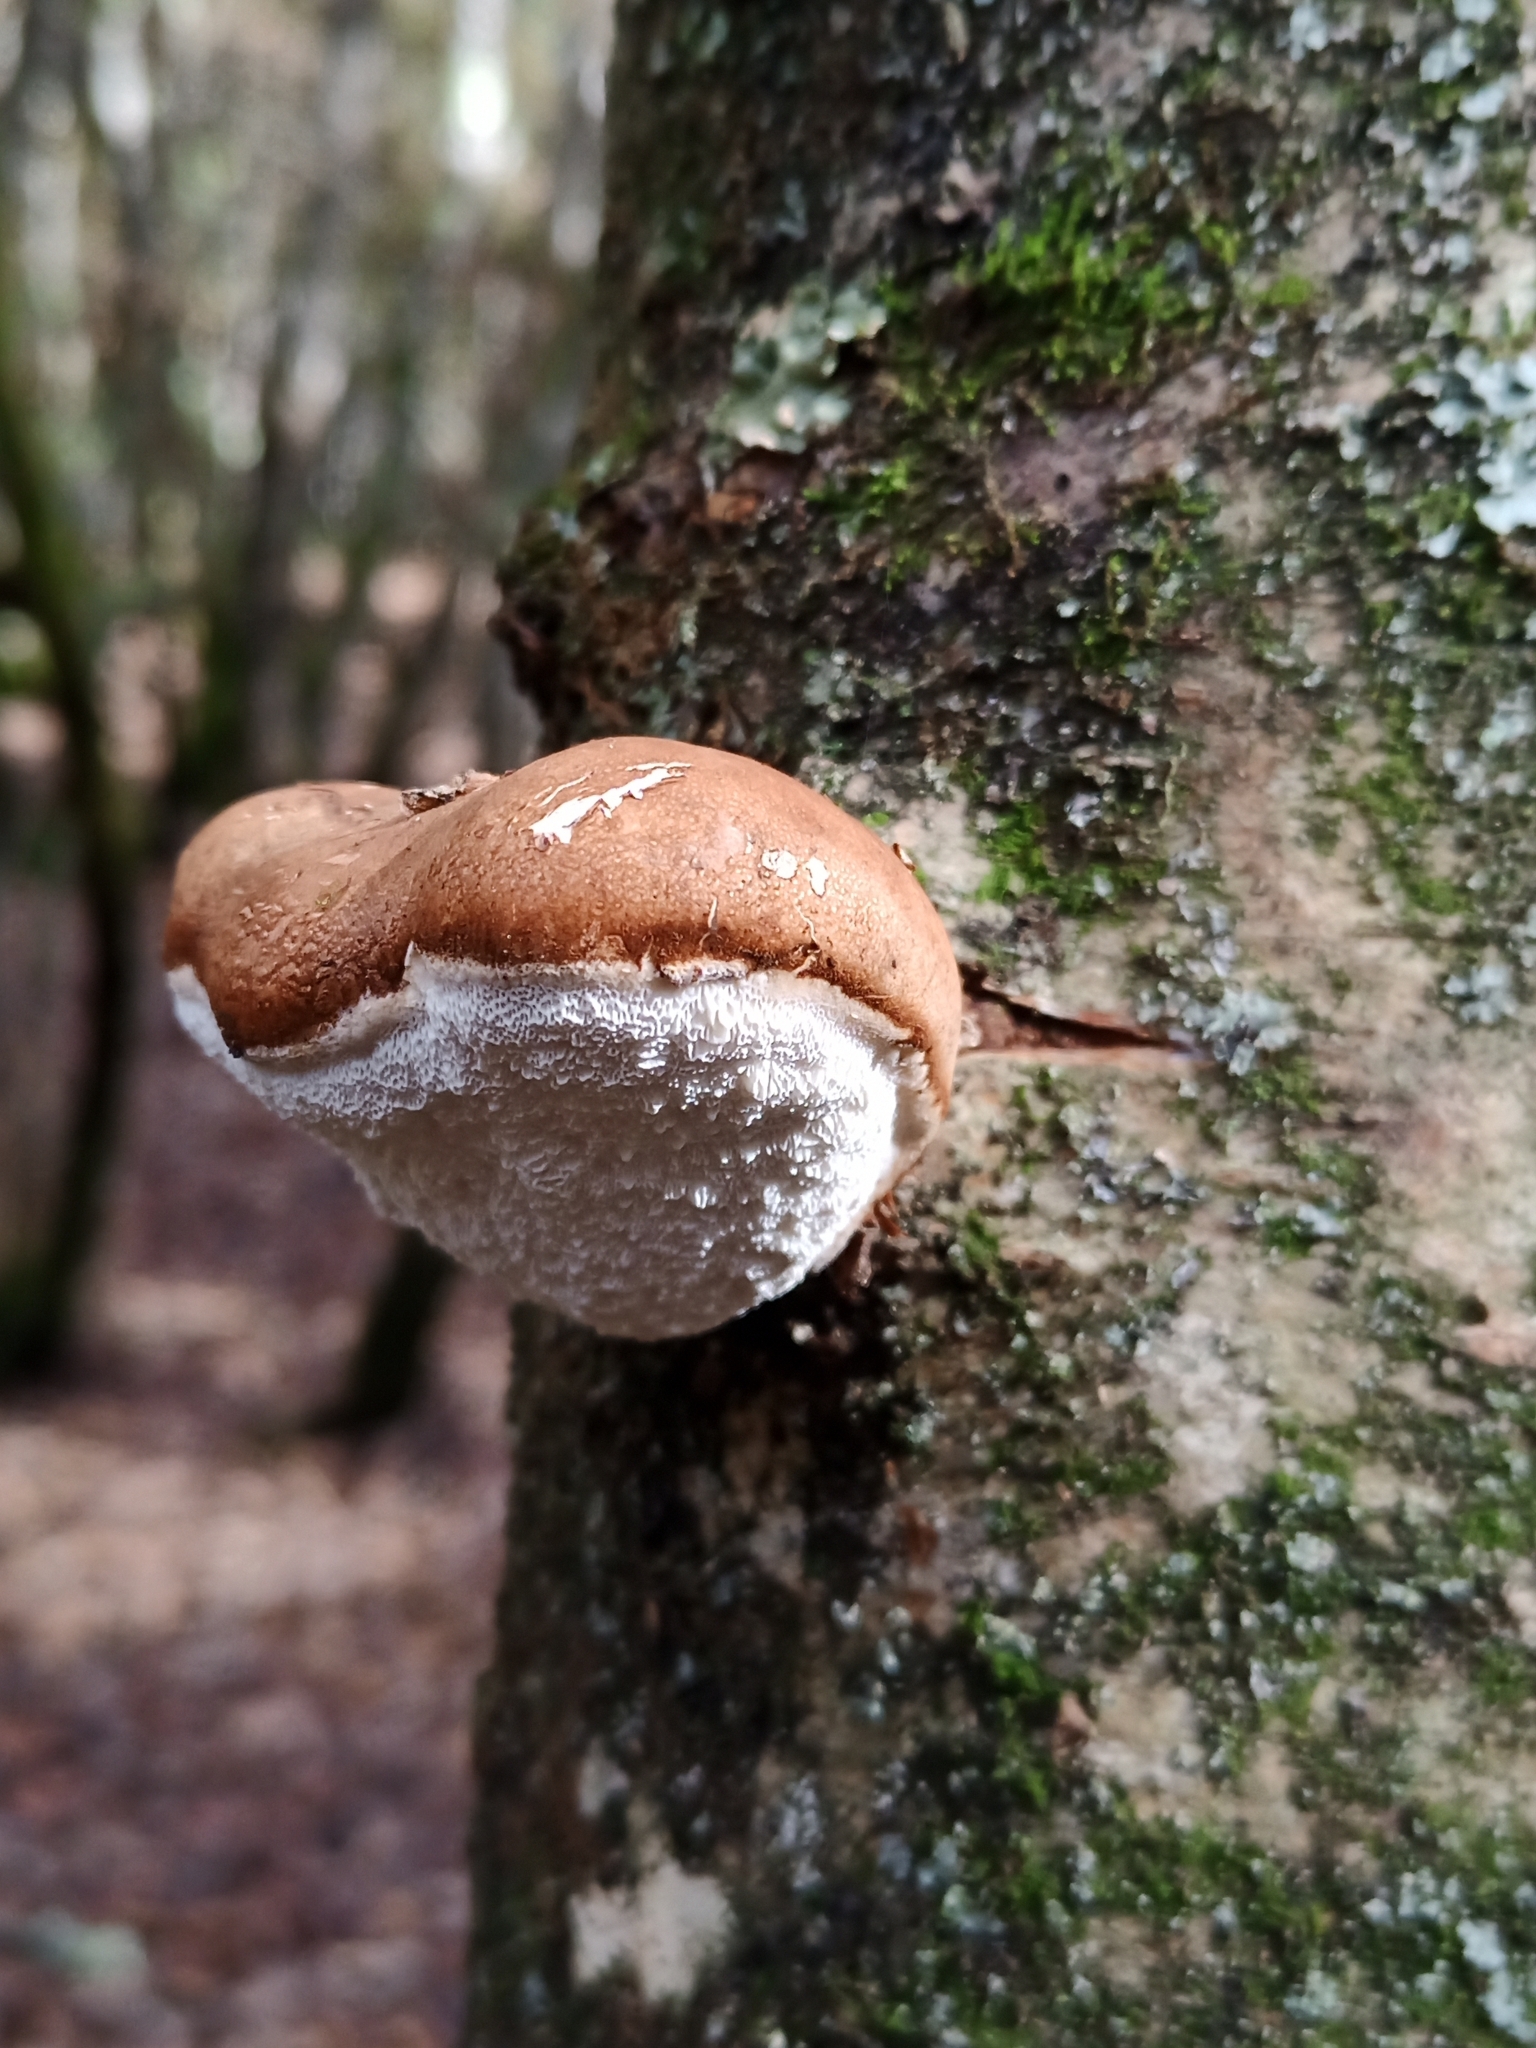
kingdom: Fungi
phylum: Basidiomycota
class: Agaricomycetes
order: Polyporales
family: Fomitopsidaceae
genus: Fomitopsis
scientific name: Fomitopsis betulina
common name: Birch polypore
